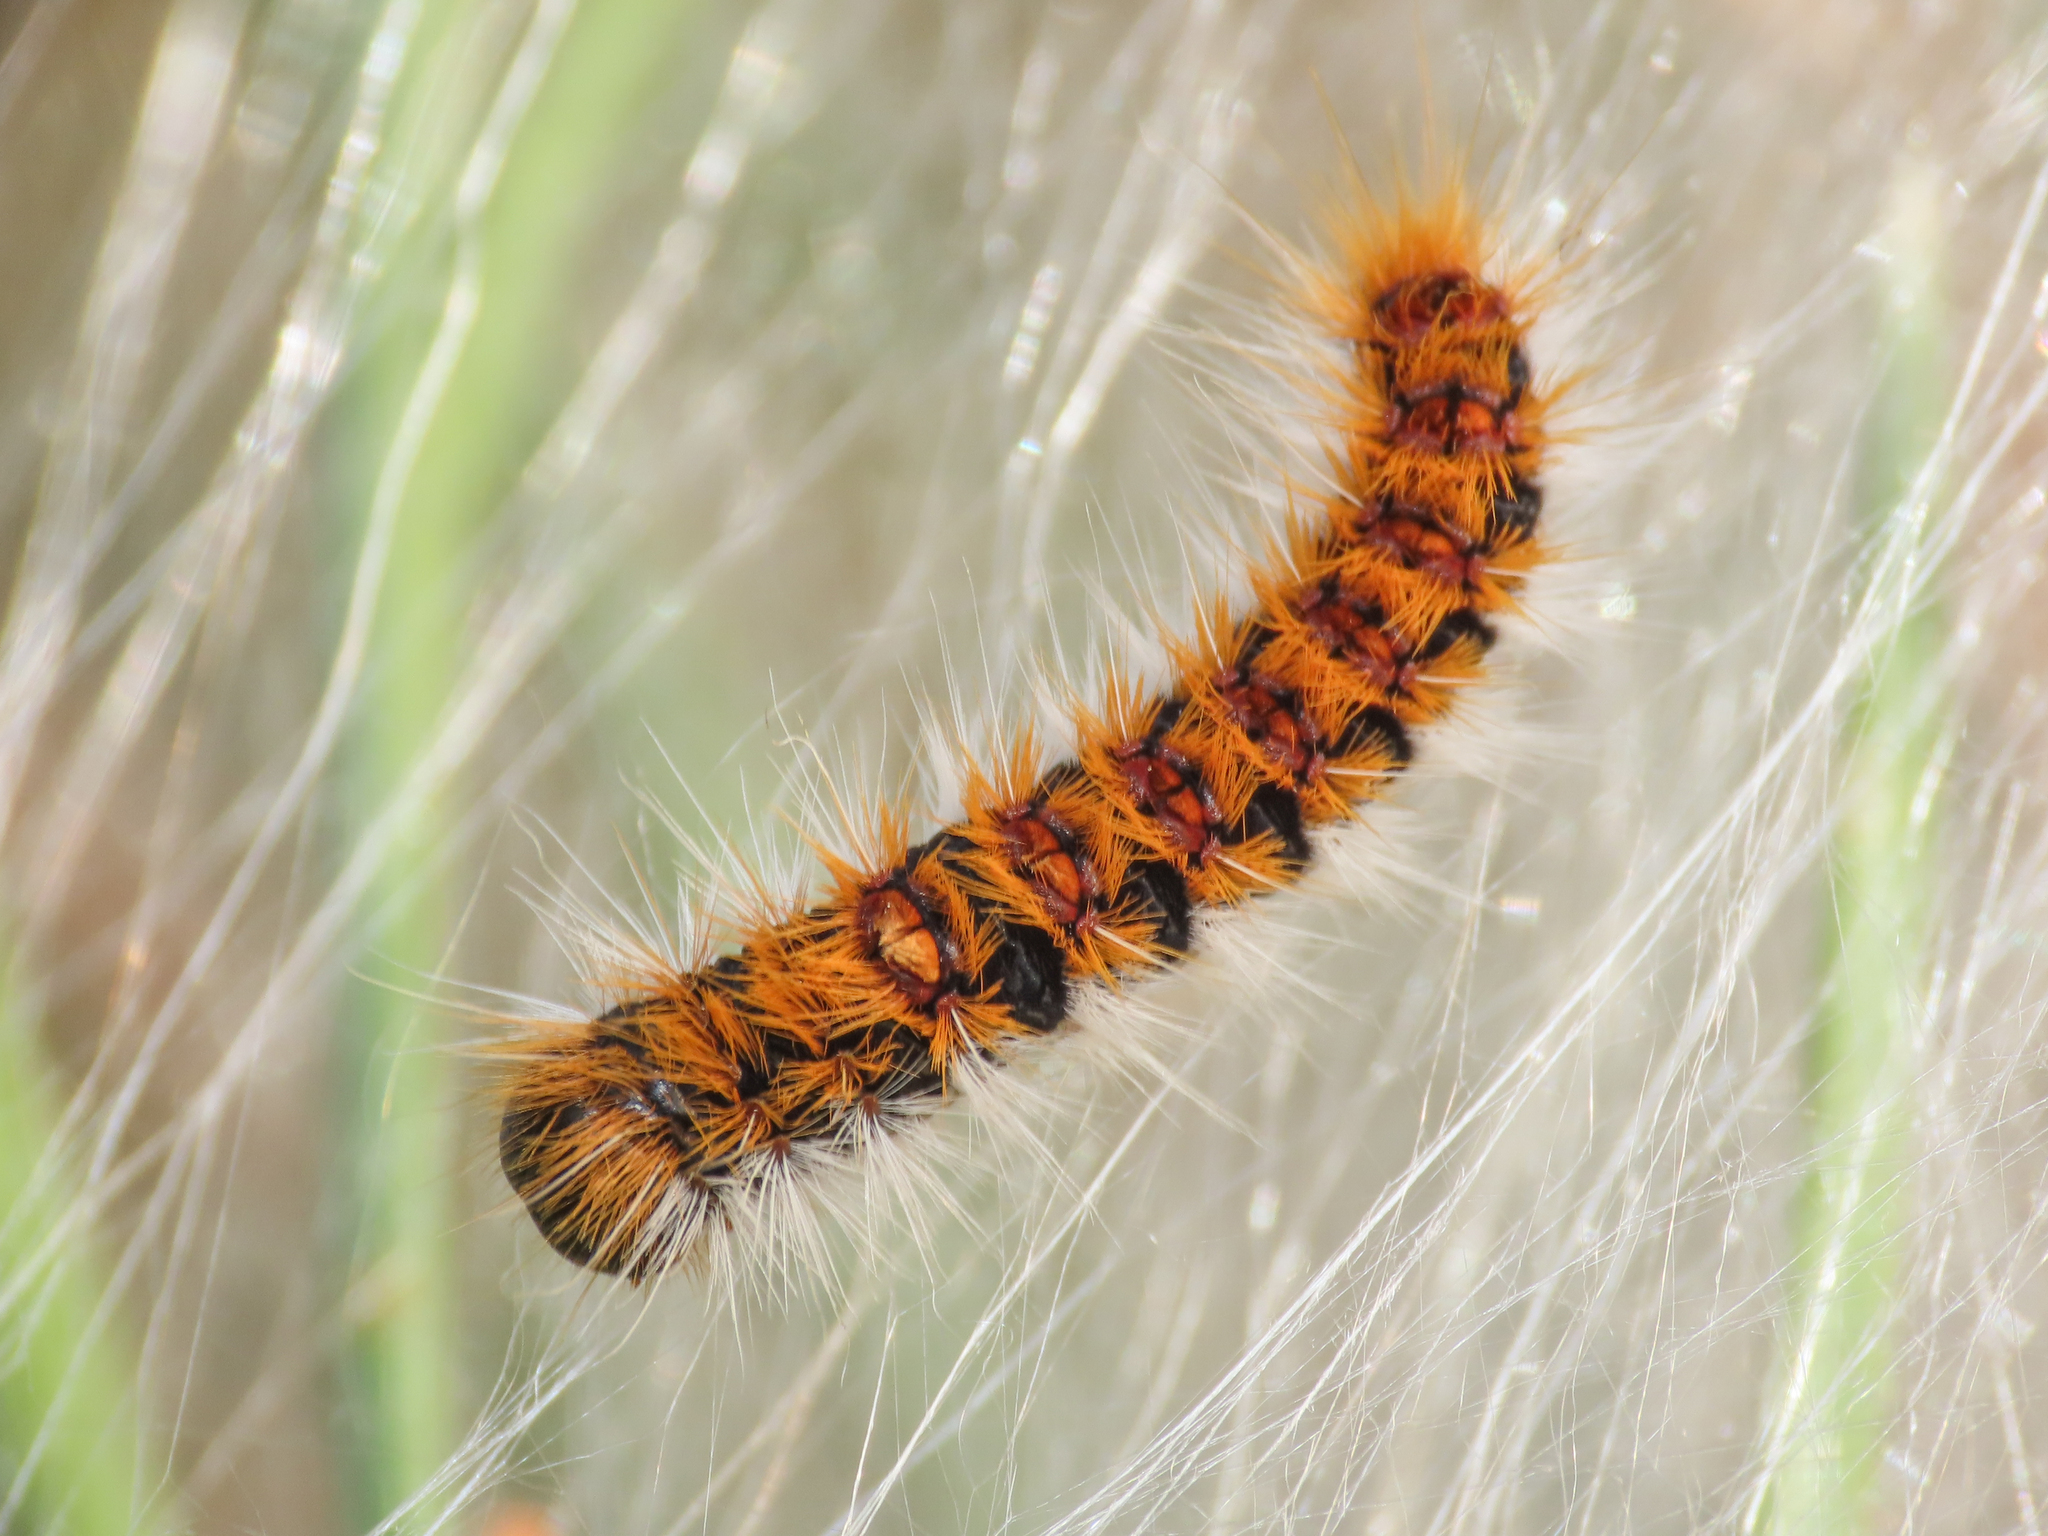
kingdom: Animalia
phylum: Arthropoda
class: Insecta
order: Lepidoptera
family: Notodontidae
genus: Thaumetopoea
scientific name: Thaumetopoea pityocampa
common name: Pine processionary
